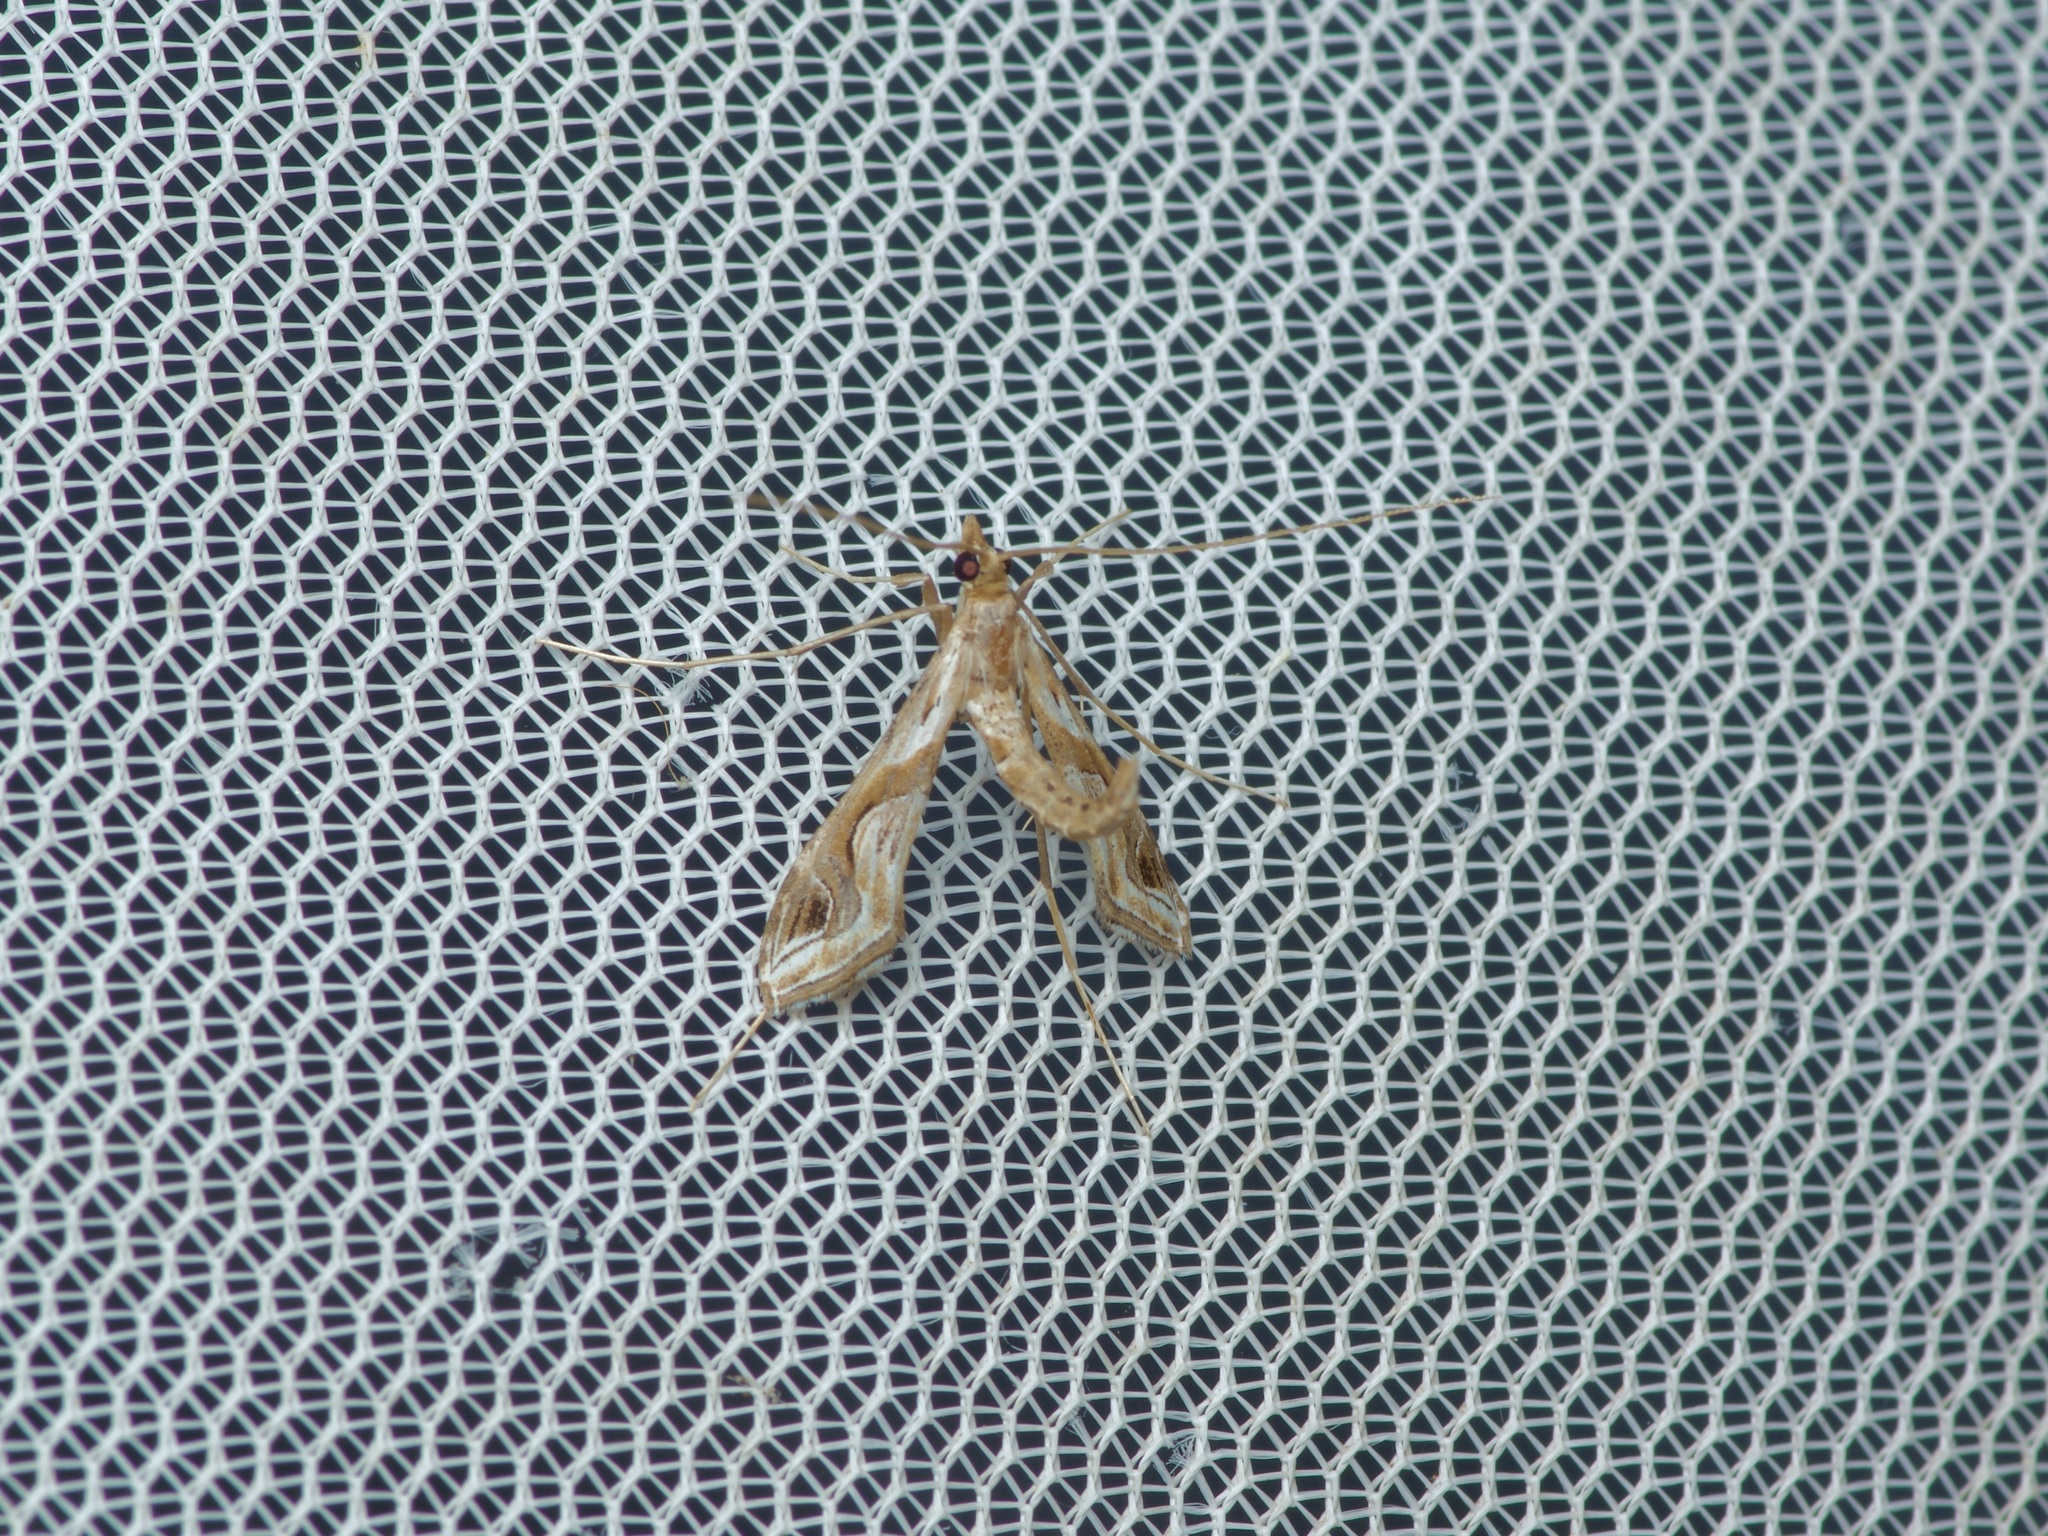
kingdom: Animalia
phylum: Arthropoda
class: Insecta
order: Lepidoptera
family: Crambidae
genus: Lineodes
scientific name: Lineodes integra
